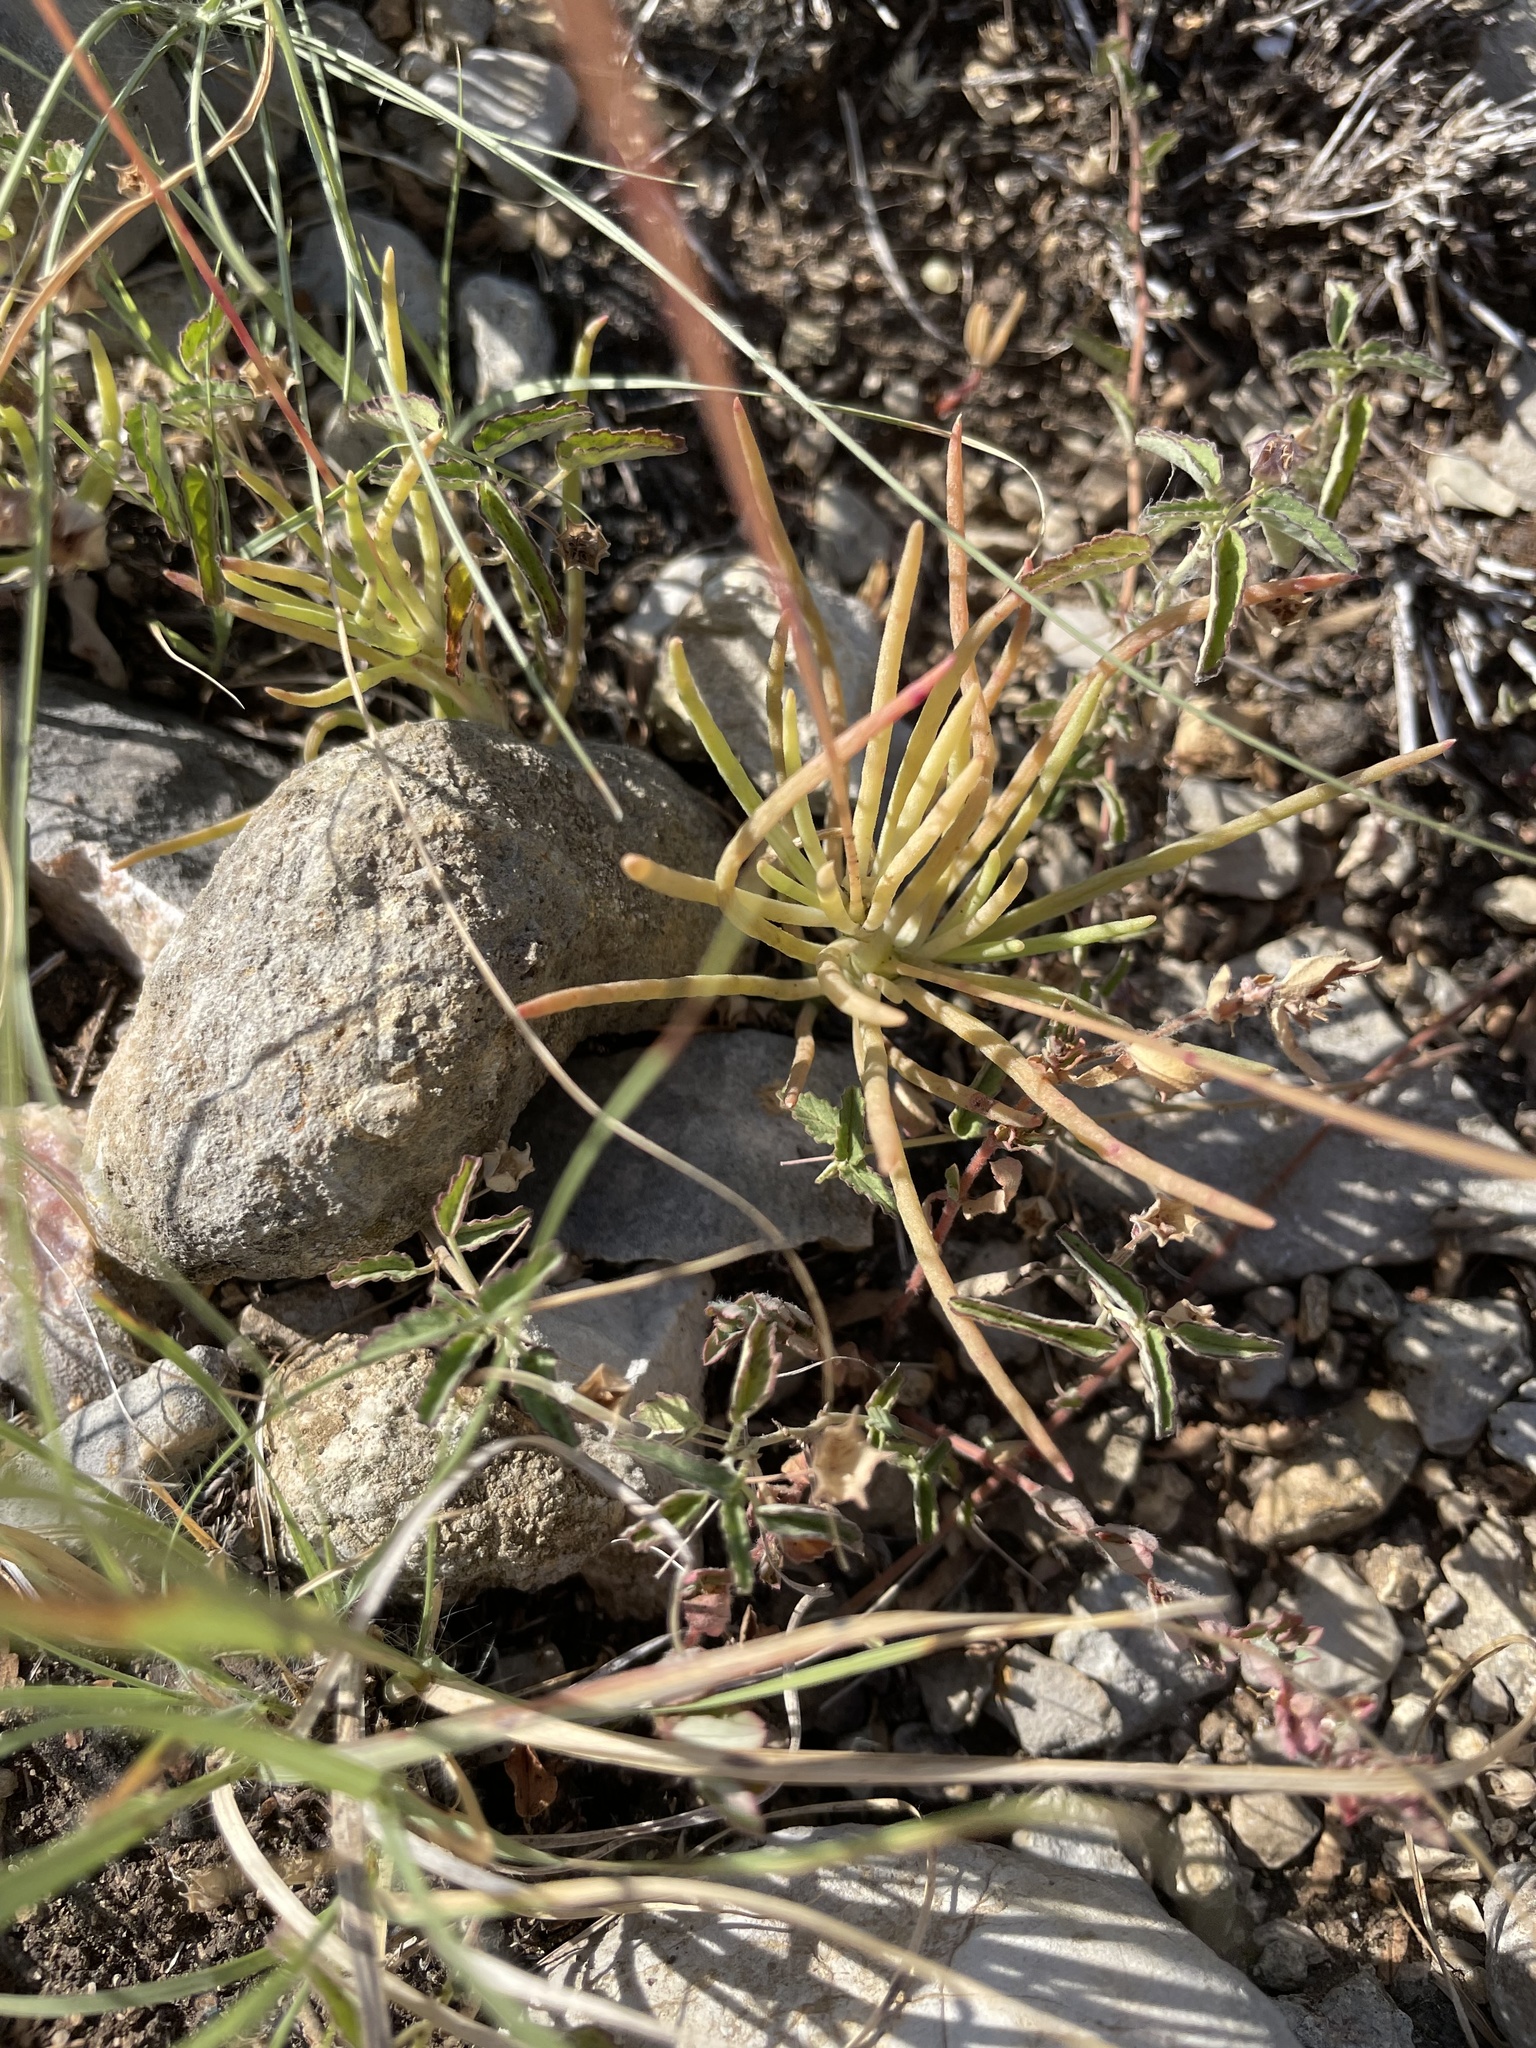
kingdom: Plantae
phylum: Tracheophyta
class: Magnoliopsida
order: Caryophyllales
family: Montiaceae
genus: Phemeranthus
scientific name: Phemeranthus parviflorus
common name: Sunbright
